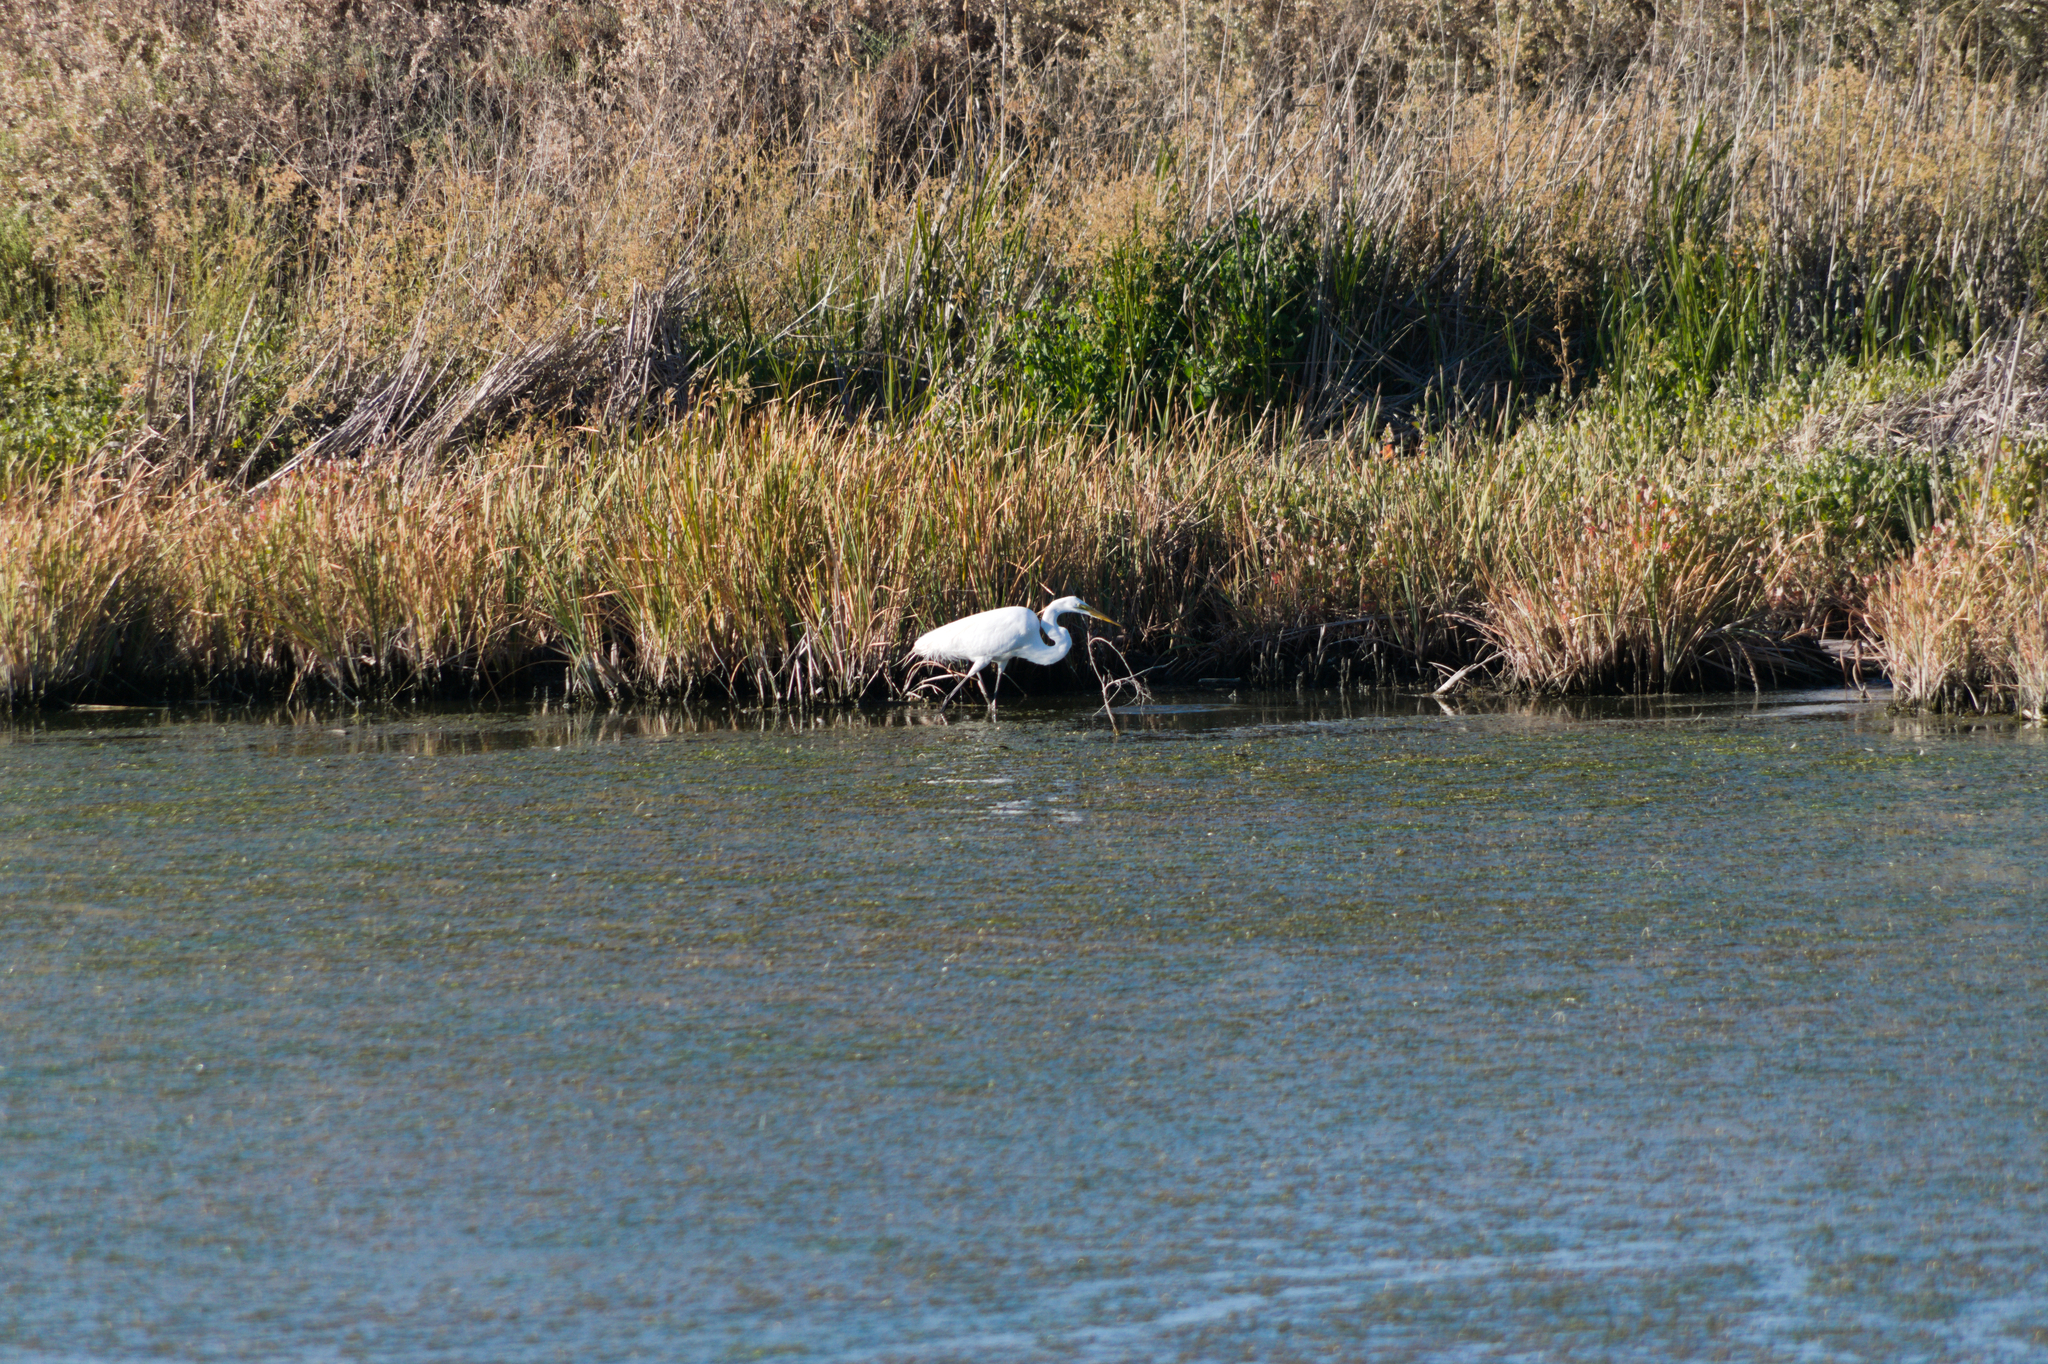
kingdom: Animalia
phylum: Chordata
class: Aves
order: Pelecaniformes
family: Ardeidae
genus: Ardea
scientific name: Ardea alba
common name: Great egret
